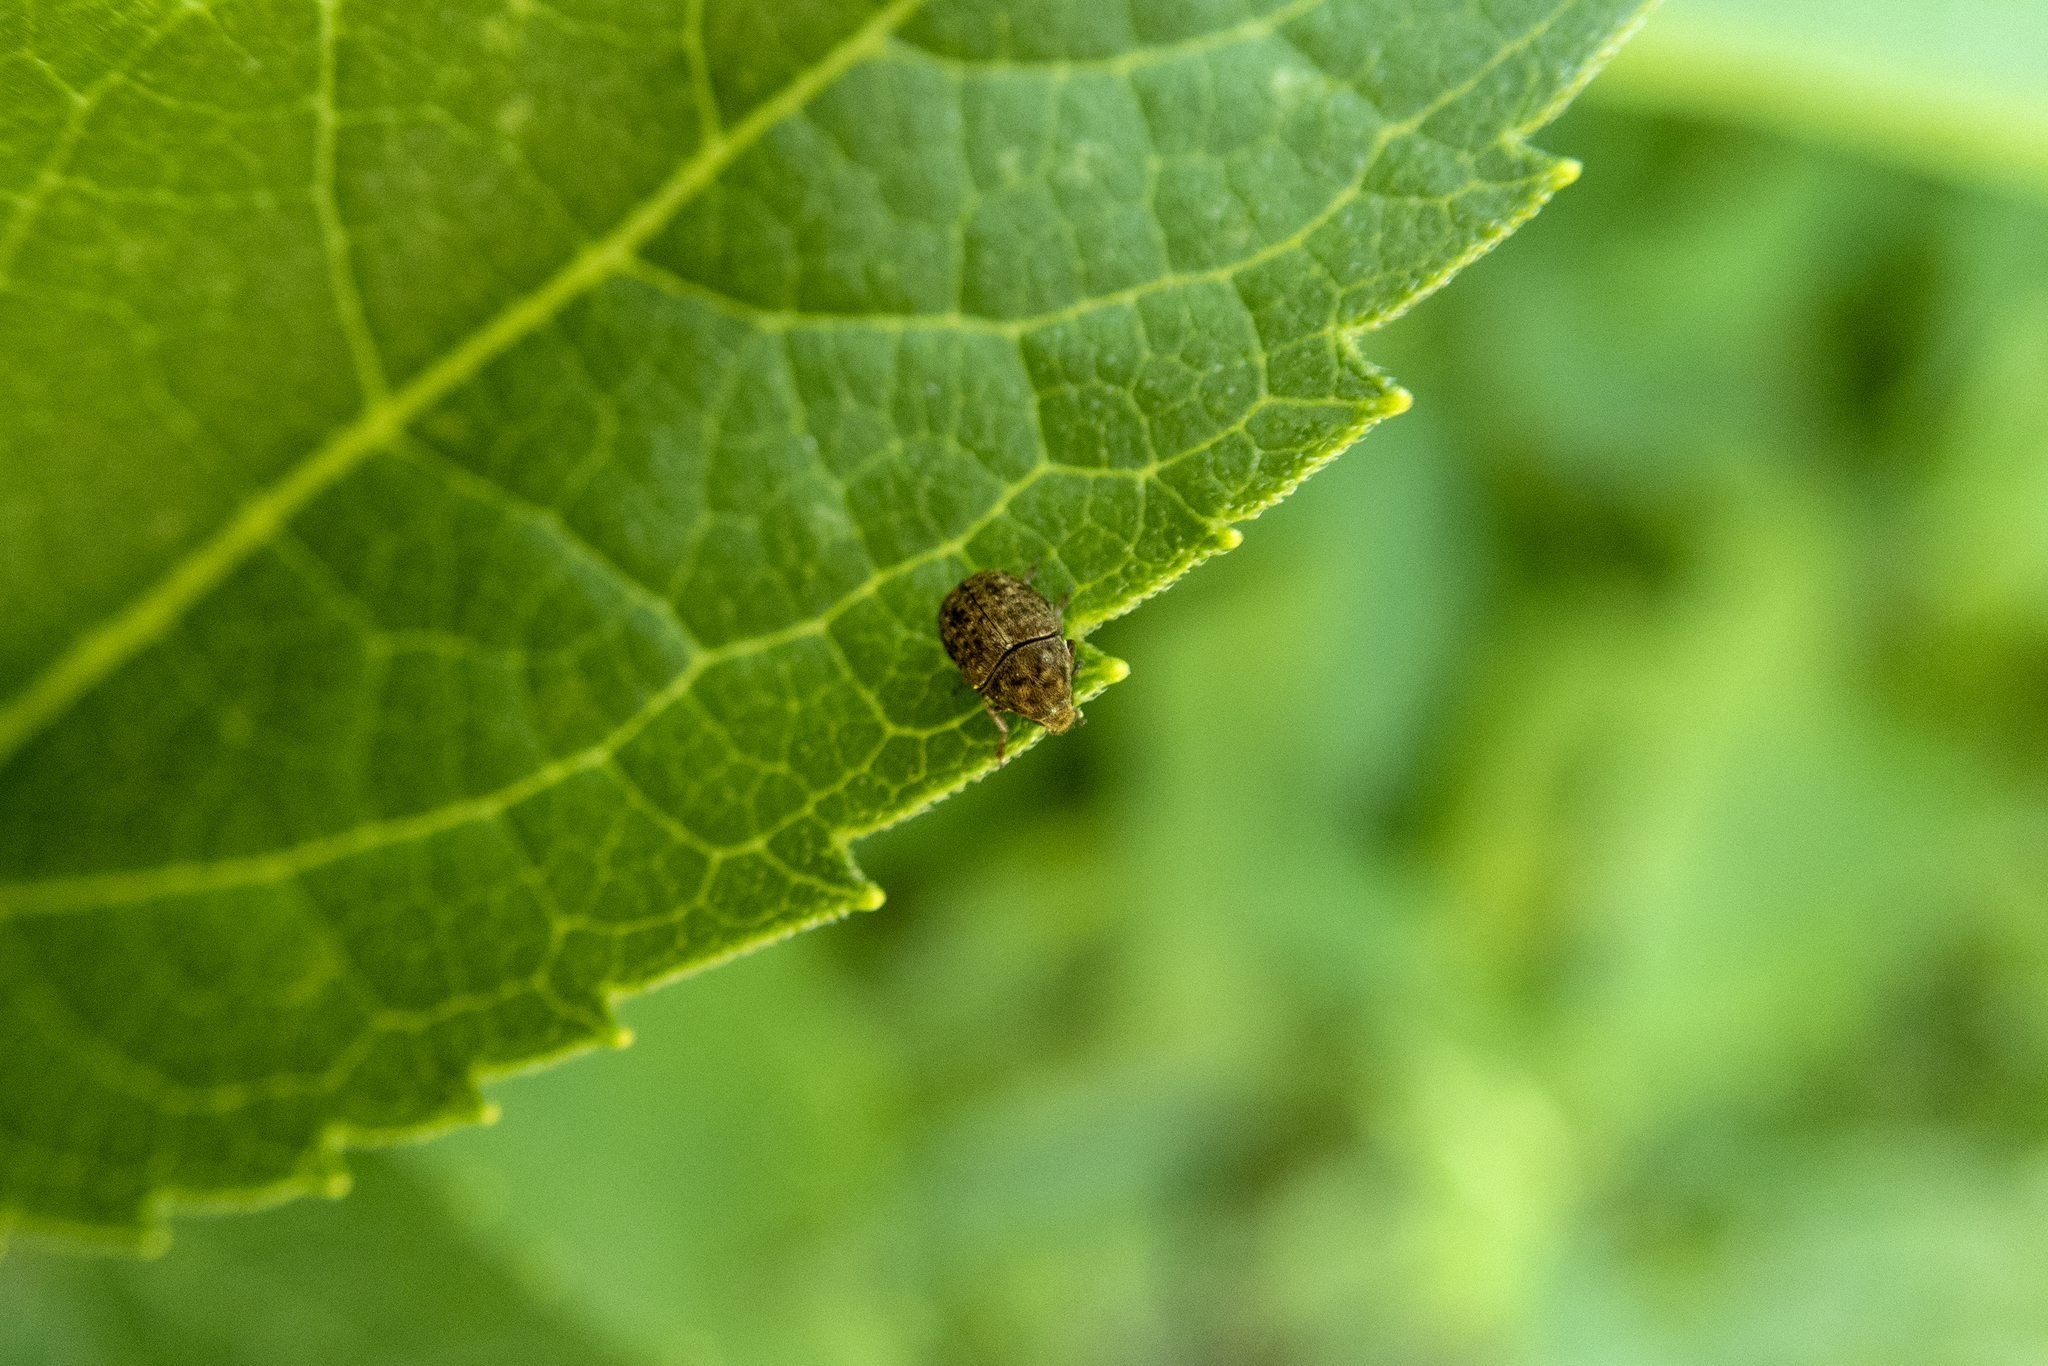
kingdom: Animalia
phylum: Arthropoda
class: Insecta
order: Coleoptera
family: Anthribidae
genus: Anthribus
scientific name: Anthribus nebulosus
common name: Fungus weevil
